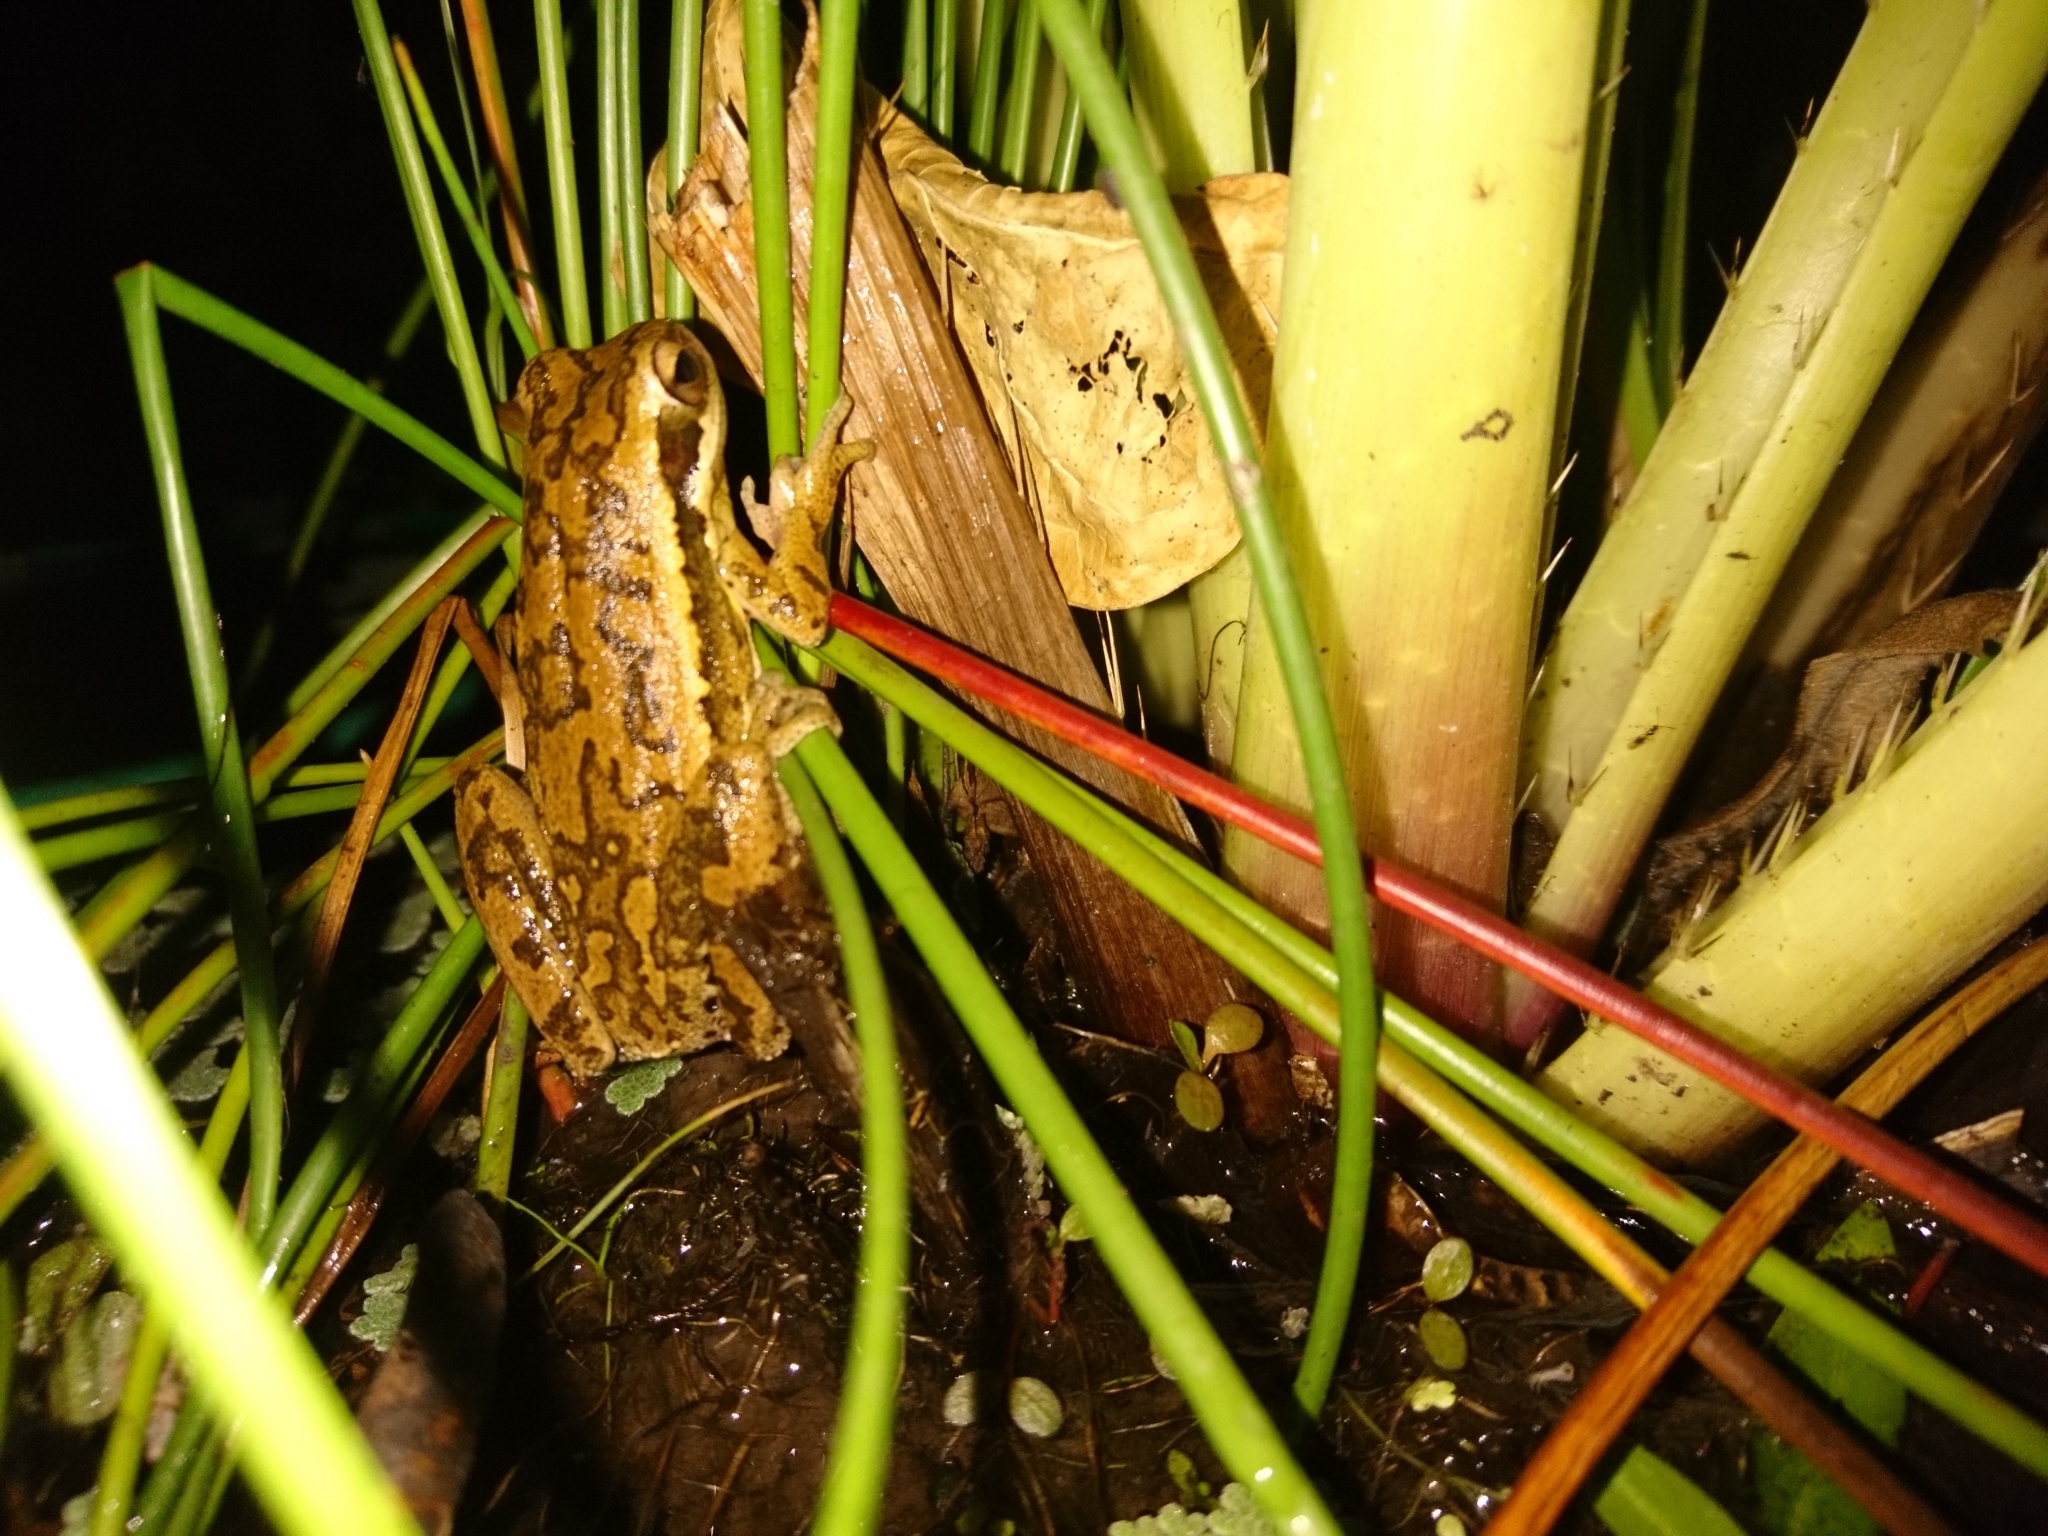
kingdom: Animalia
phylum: Chordata
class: Amphibia
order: Anura
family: Hylidae
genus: Boana
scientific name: Boana pulchella
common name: Montevideo treefrog
